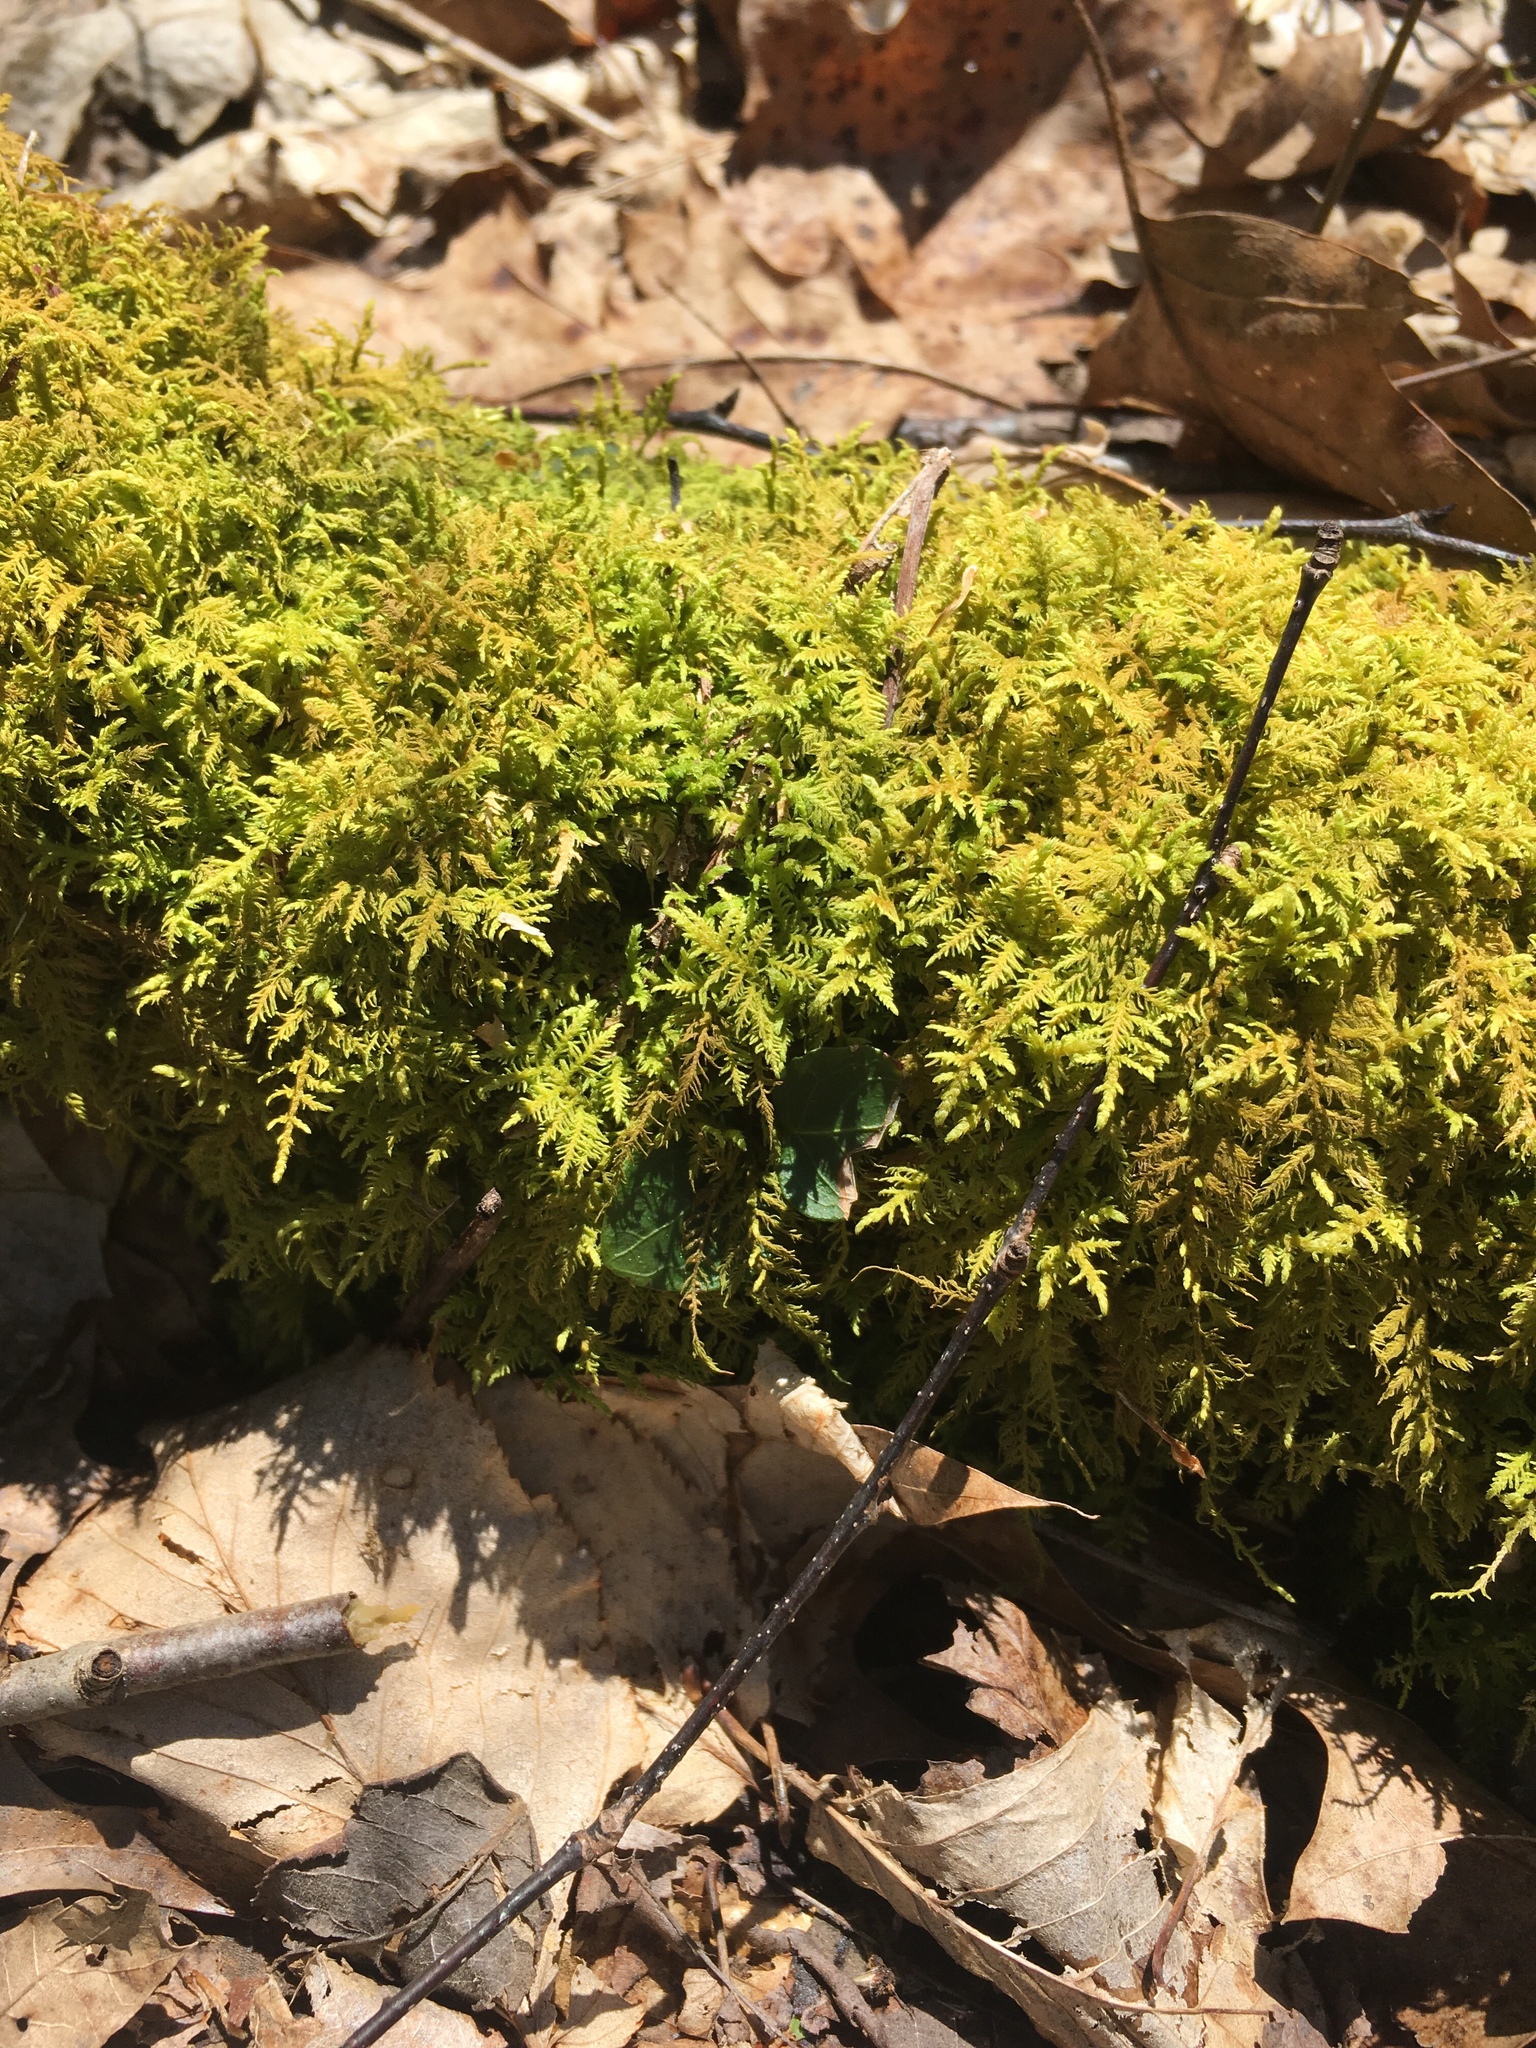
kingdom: Plantae
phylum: Bryophyta
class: Bryopsida
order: Hypnales
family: Thuidiaceae
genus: Thuidium
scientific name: Thuidium delicatulum
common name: Delicate fern moss
